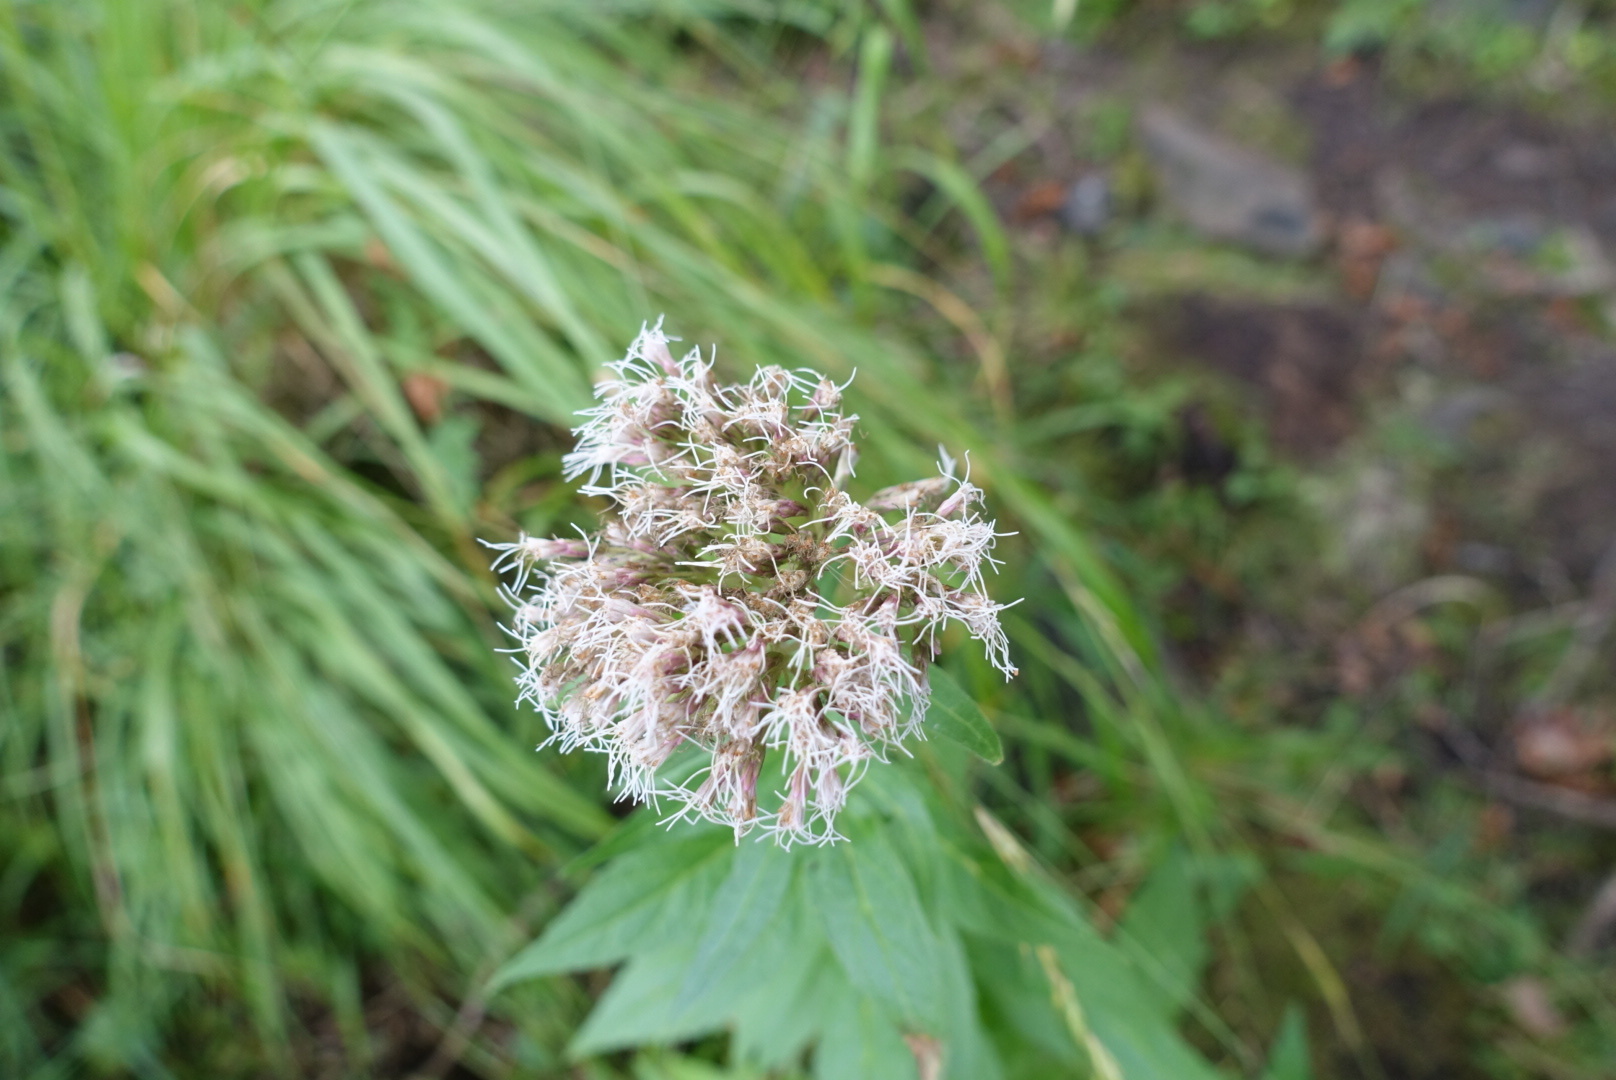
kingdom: Plantae
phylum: Tracheophyta
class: Magnoliopsida
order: Asterales
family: Asteraceae
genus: Eupatorium
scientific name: Eupatorium cannabinum
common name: Hemp-agrimony
